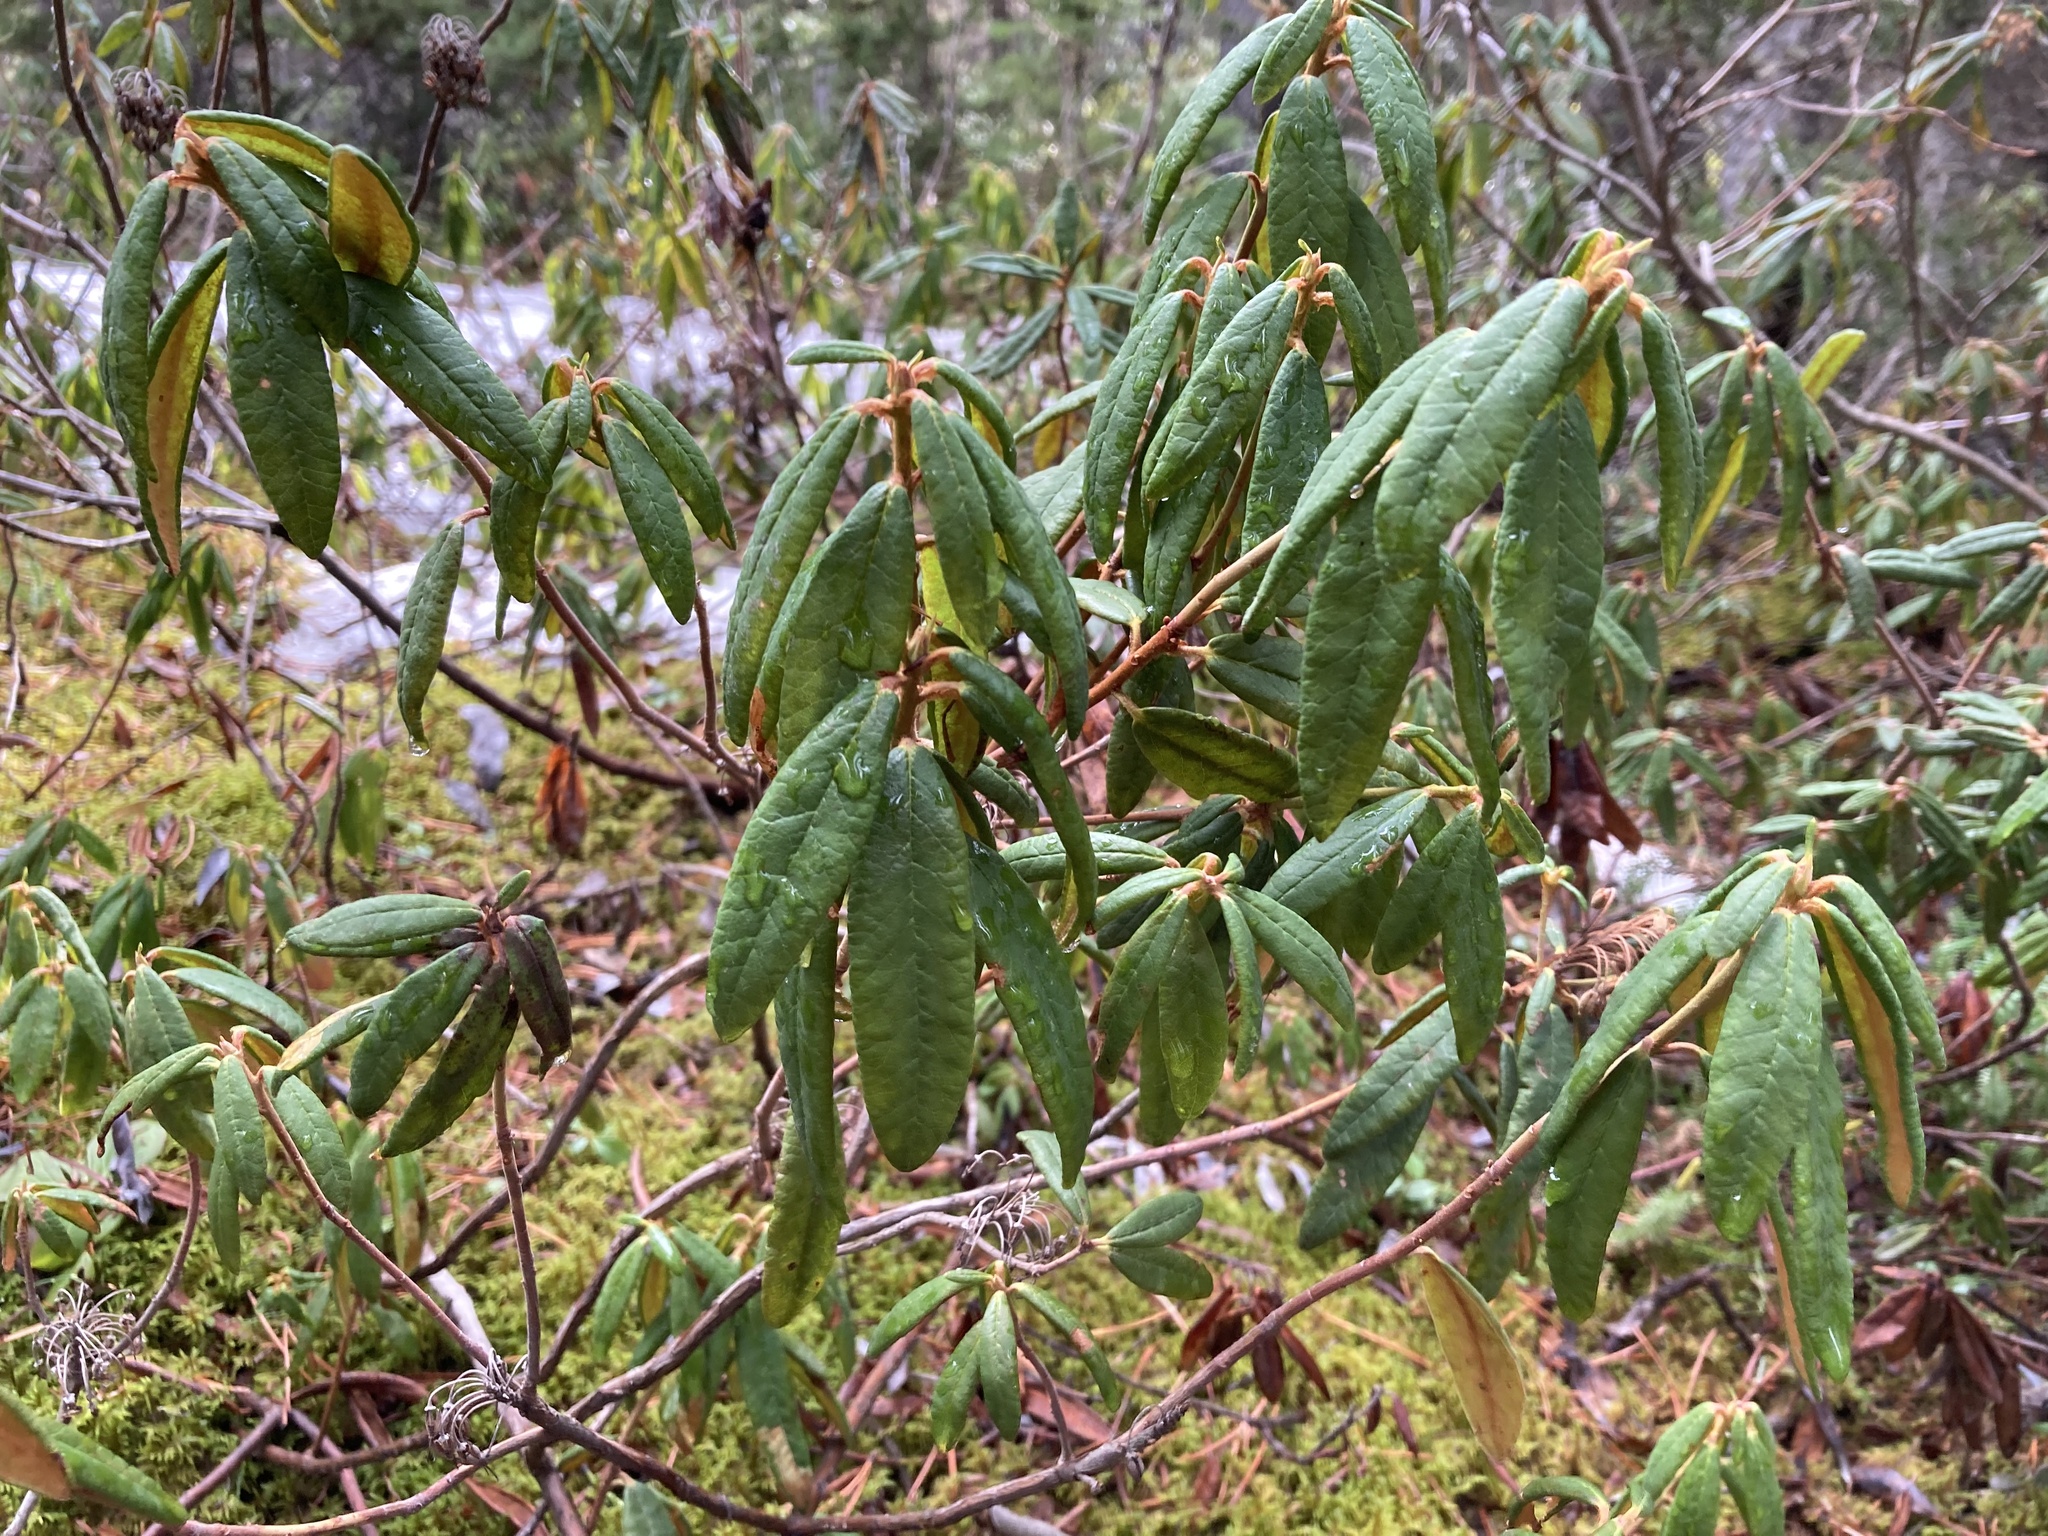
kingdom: Plantae
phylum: Tracheophyta
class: Magnoliopsida
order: Ericales
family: Ericaceae
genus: Rhododendron
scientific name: Rhododendron groenlandicum
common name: Bog labrador tea
